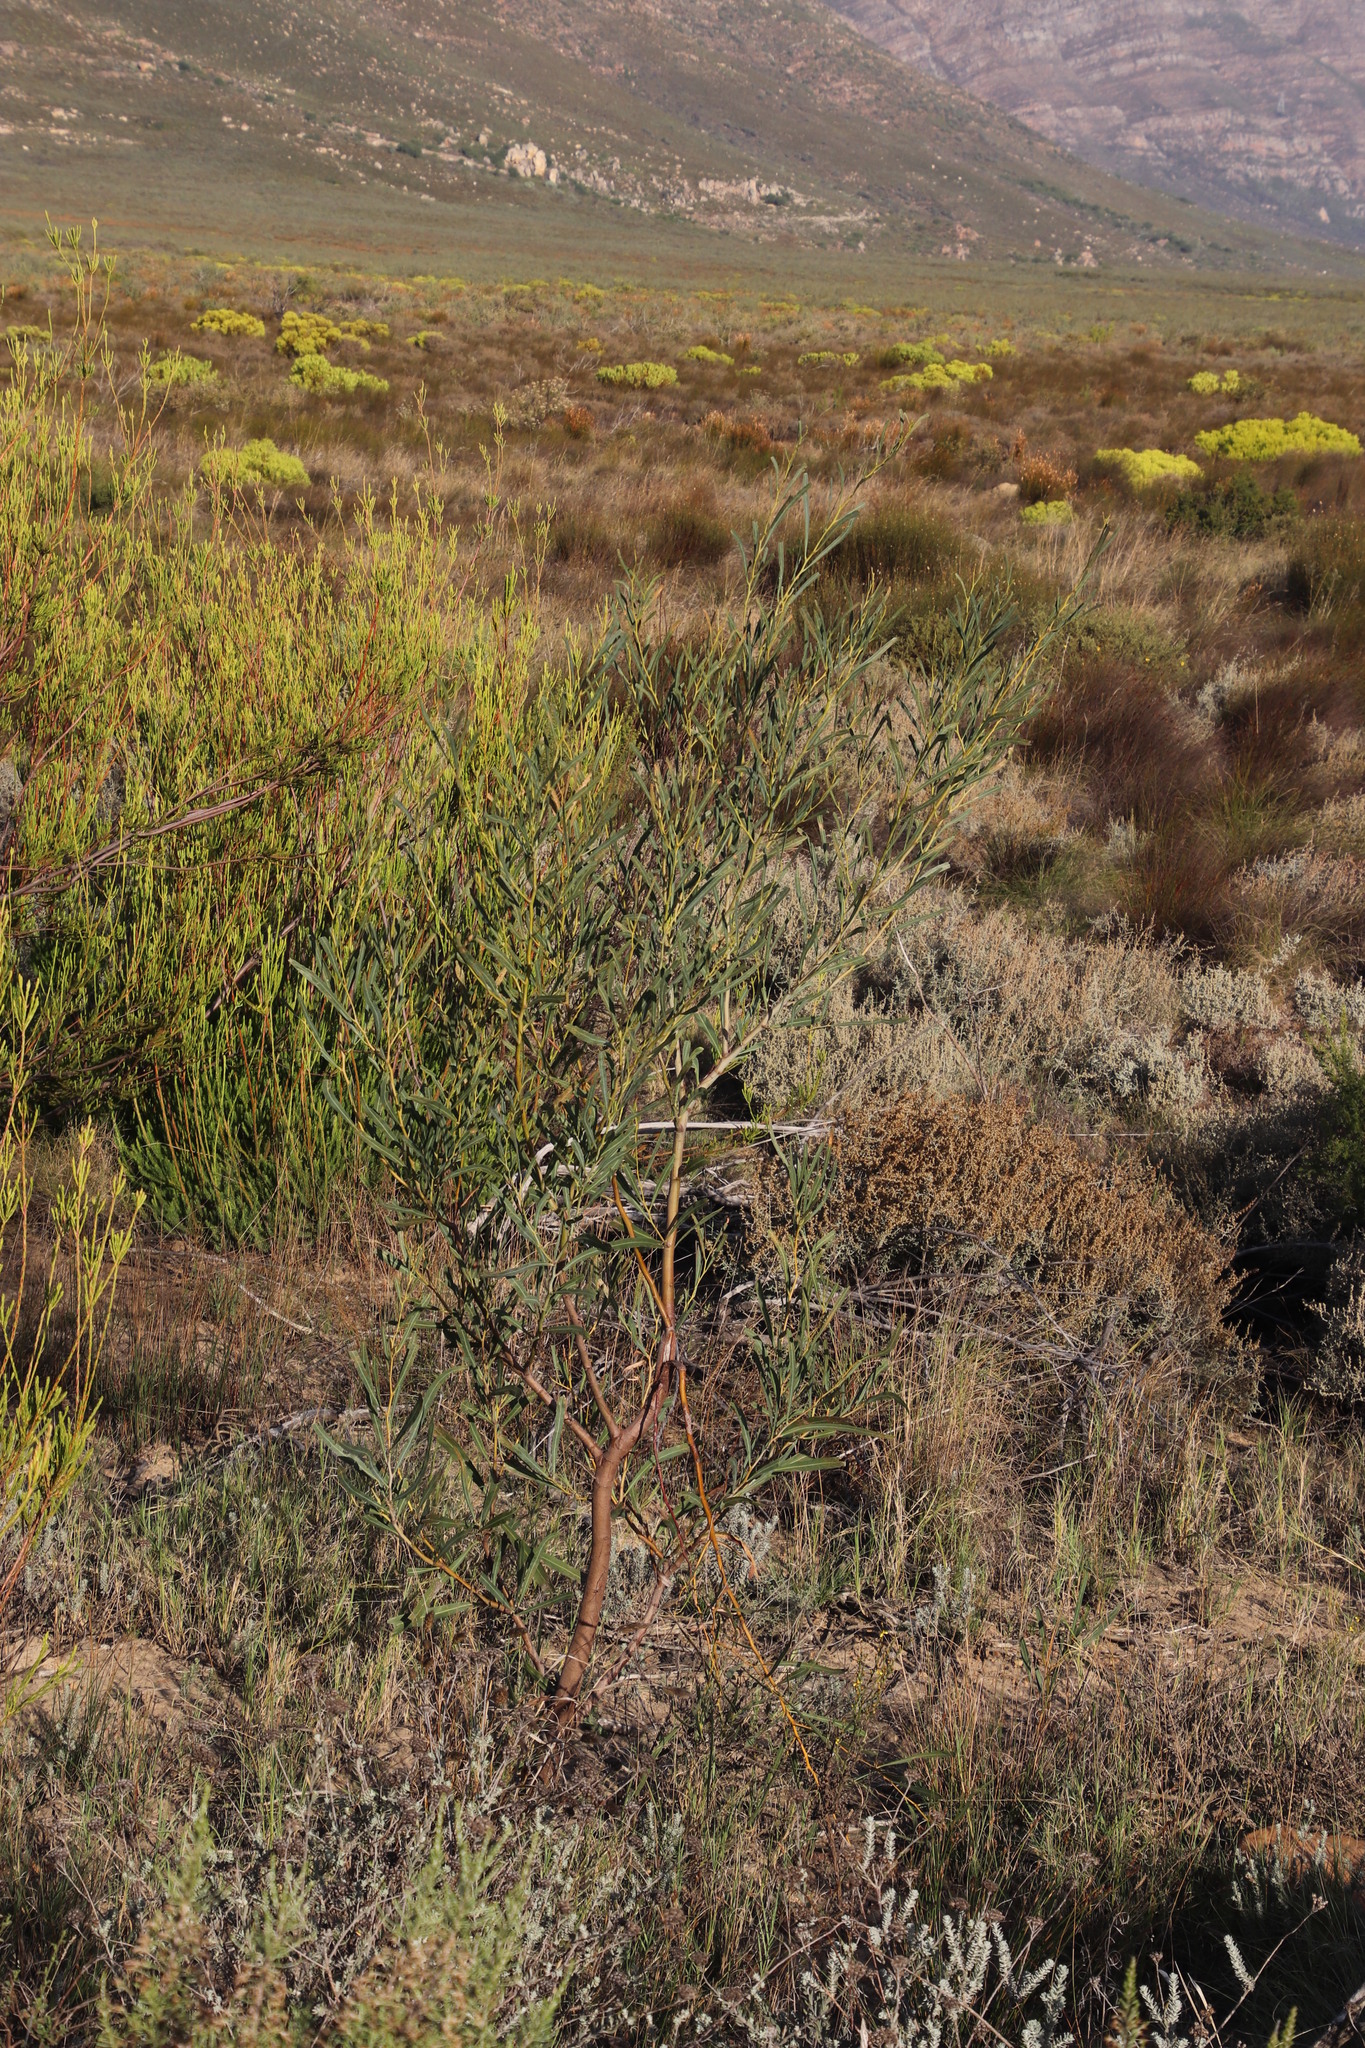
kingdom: Plantae
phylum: Tracheophyta
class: Magnoliopsida
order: Fabales
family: Fabaceae
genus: Acacia
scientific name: Acacia saligna
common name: Orange wattle
